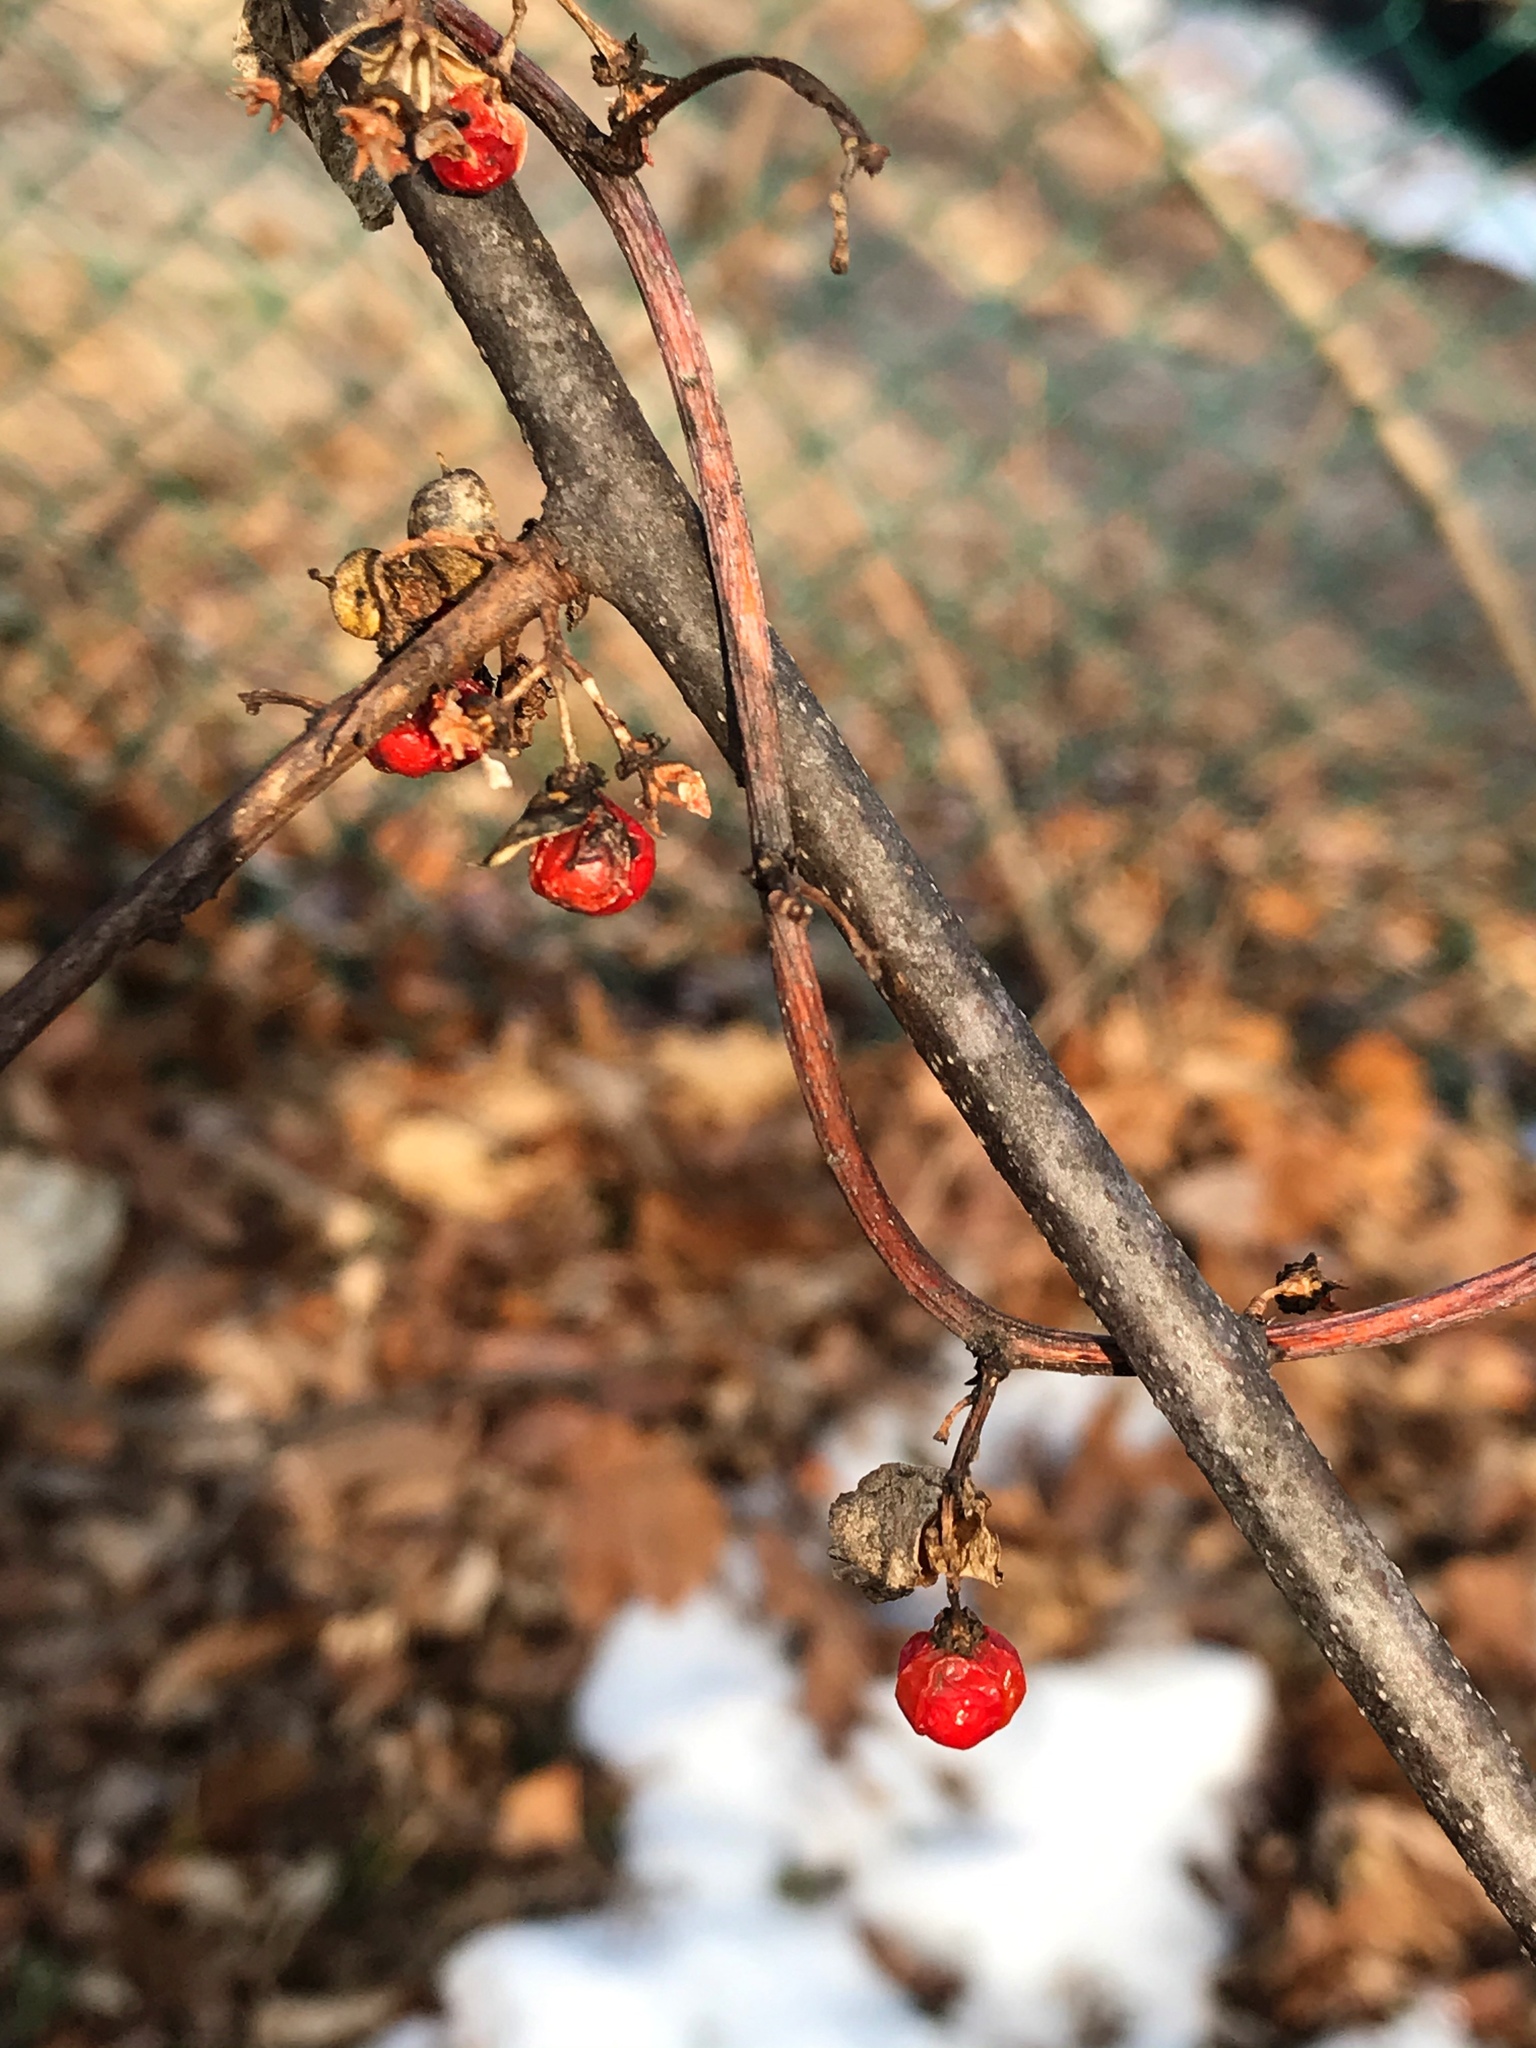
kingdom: Plantae
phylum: Tracheophyta
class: Magnoliopsida
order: Celastrales
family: Celastraceae
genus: Celastrus
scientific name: Celastrus orbiculatus
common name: Oriental bittersweet
